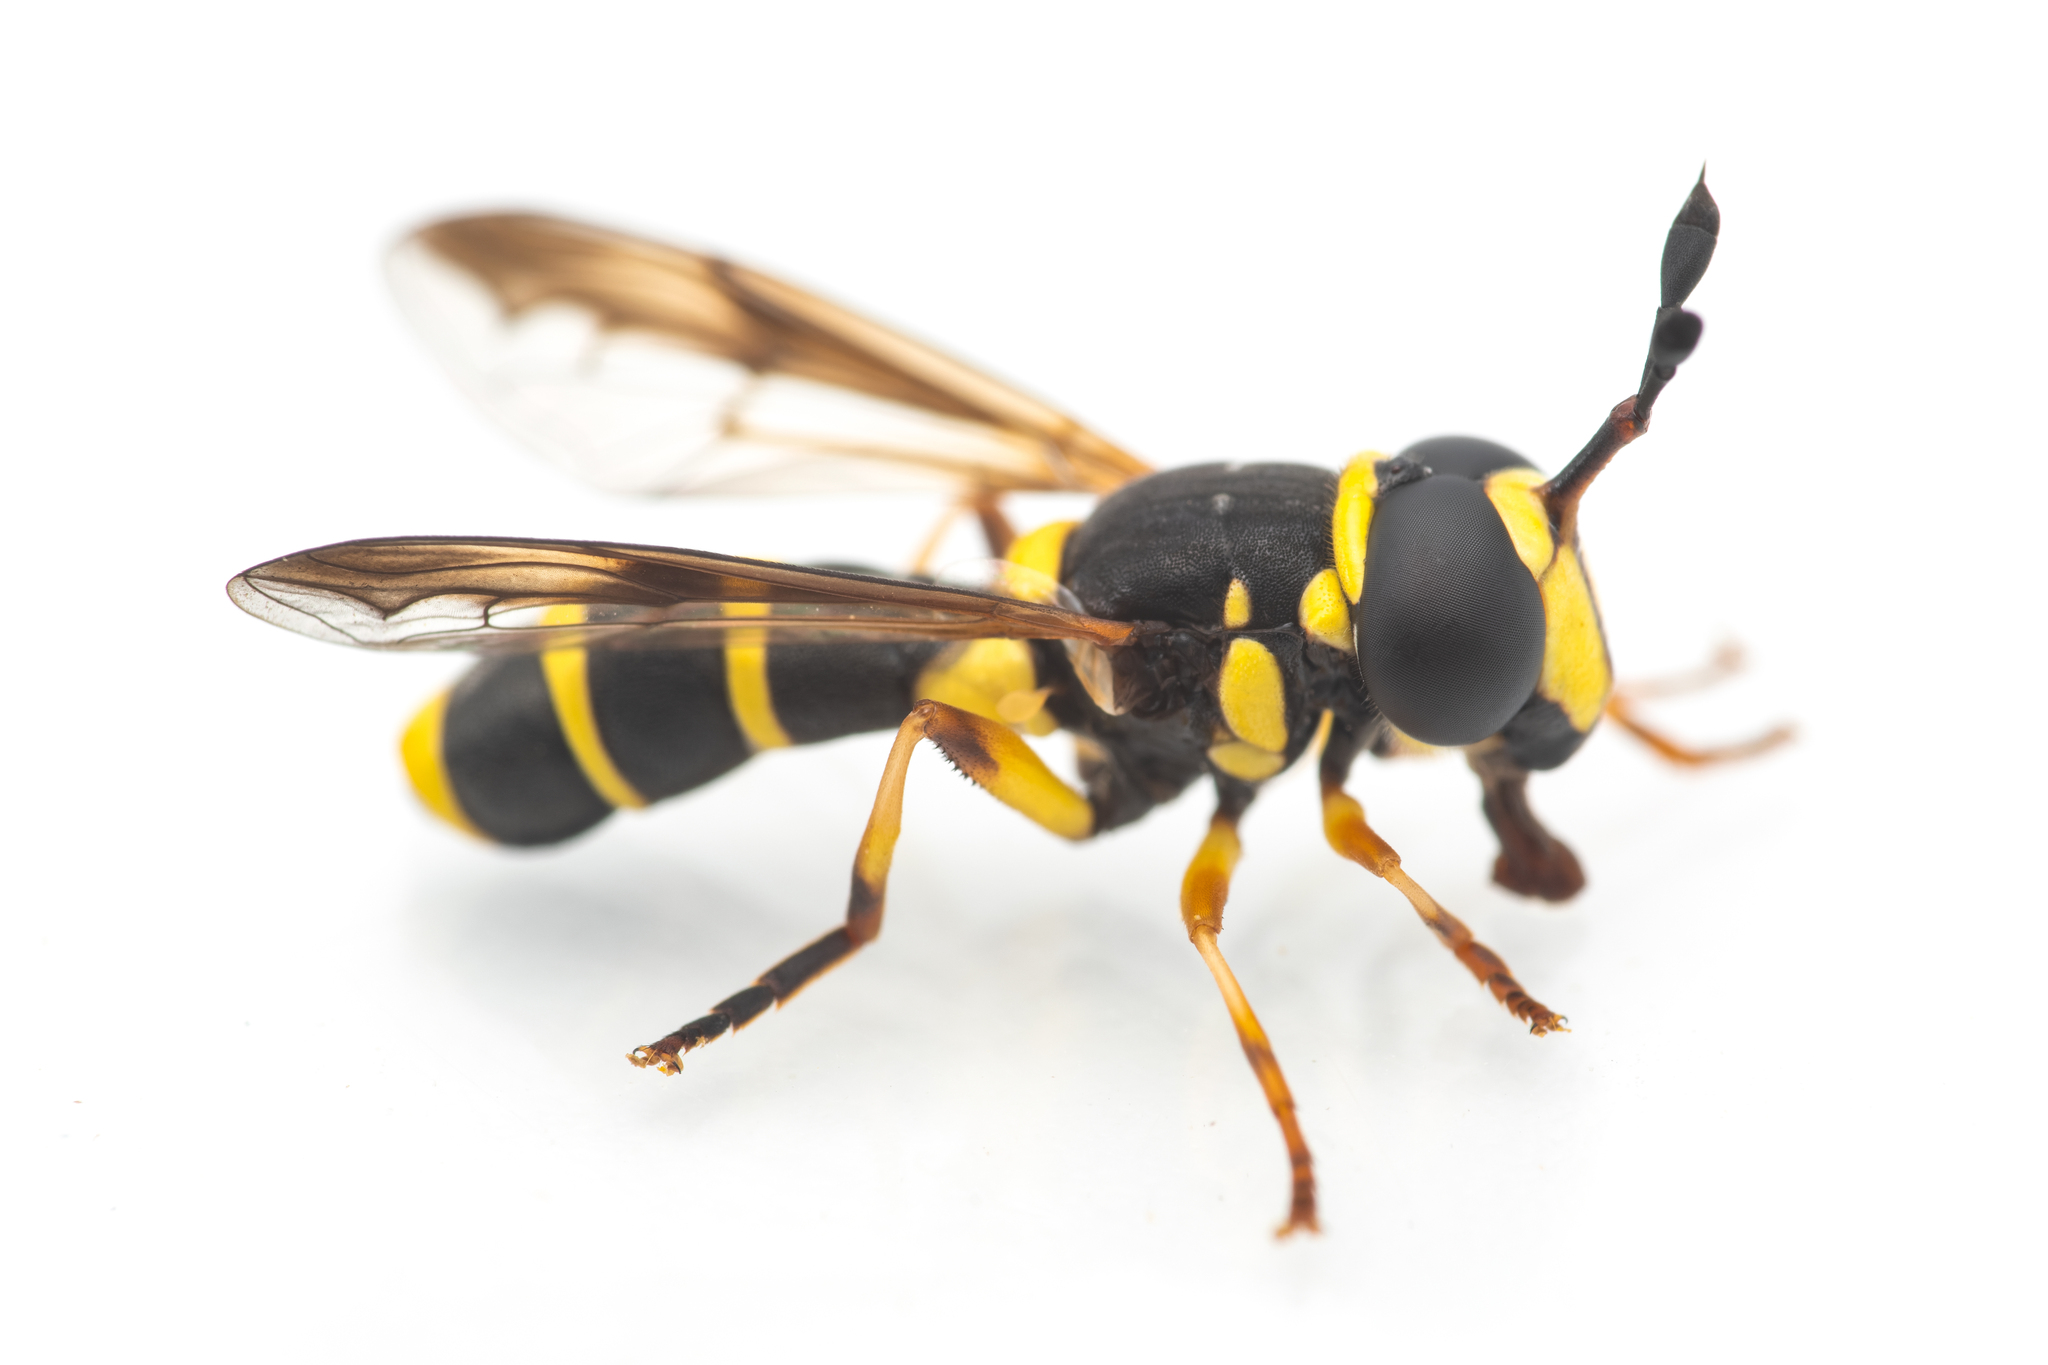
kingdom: Animalia
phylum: Arthropoda
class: Insecta
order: Diptera
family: Syrphidae
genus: Ceriana
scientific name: Ceriana vespiformis
